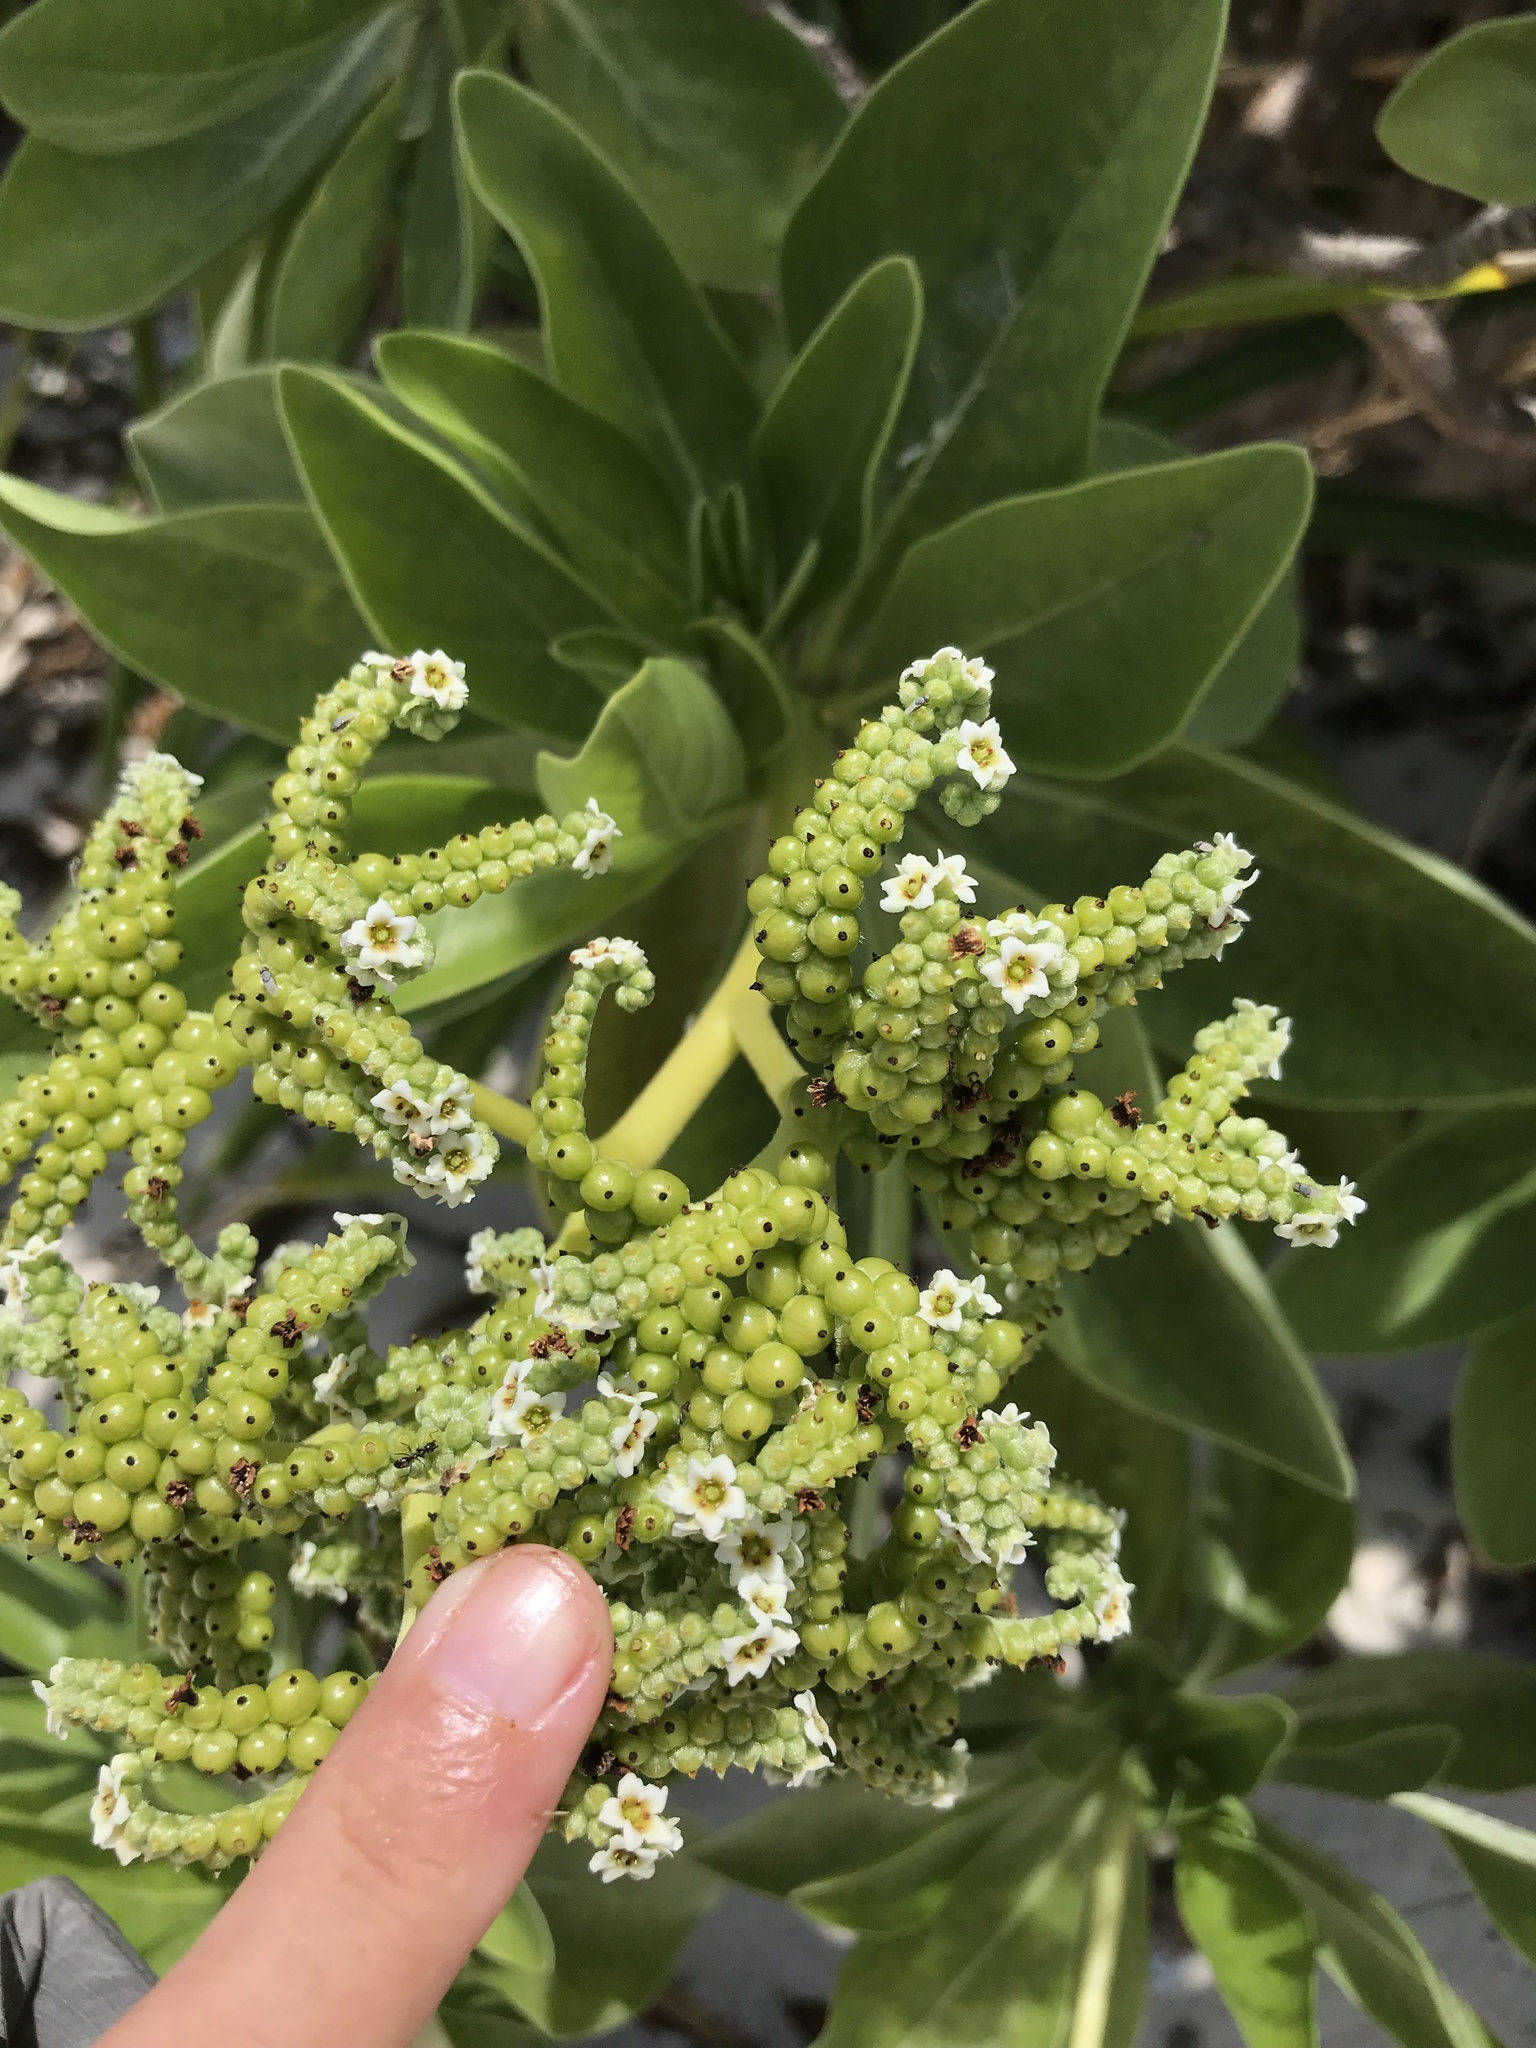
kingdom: Plantae
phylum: Tracheophyta
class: Magnoliopsida
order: Boraginales
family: Heliotropiaceae
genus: Heliotropium
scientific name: Heliotropium velutinum
